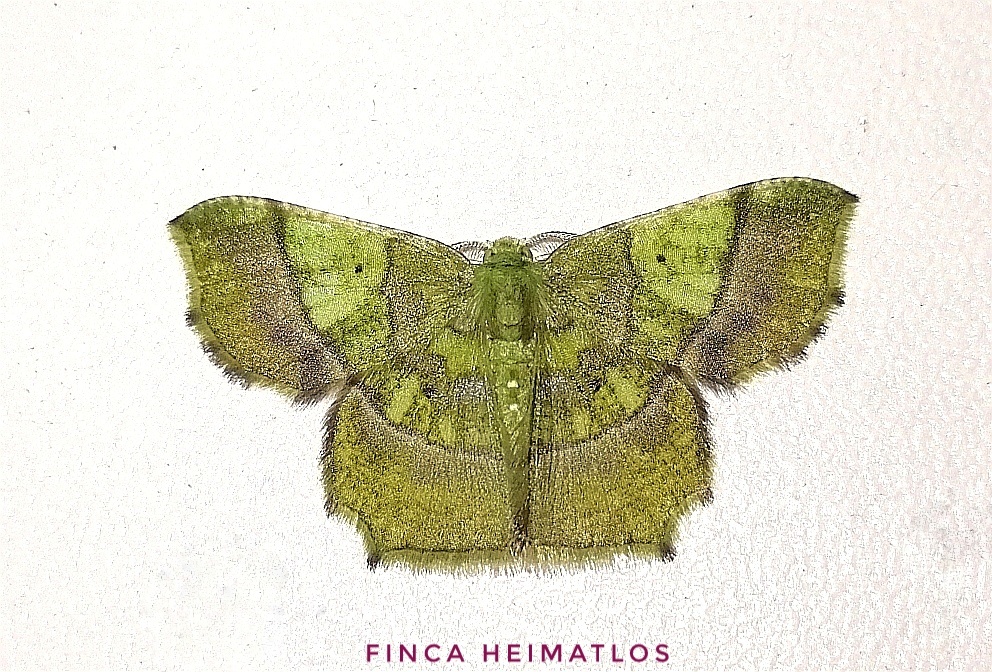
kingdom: Animalia
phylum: Arthropoda
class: Insecta
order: Lepidoptera
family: Geometridae
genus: Neagathia
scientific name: Neagathia corruptata
